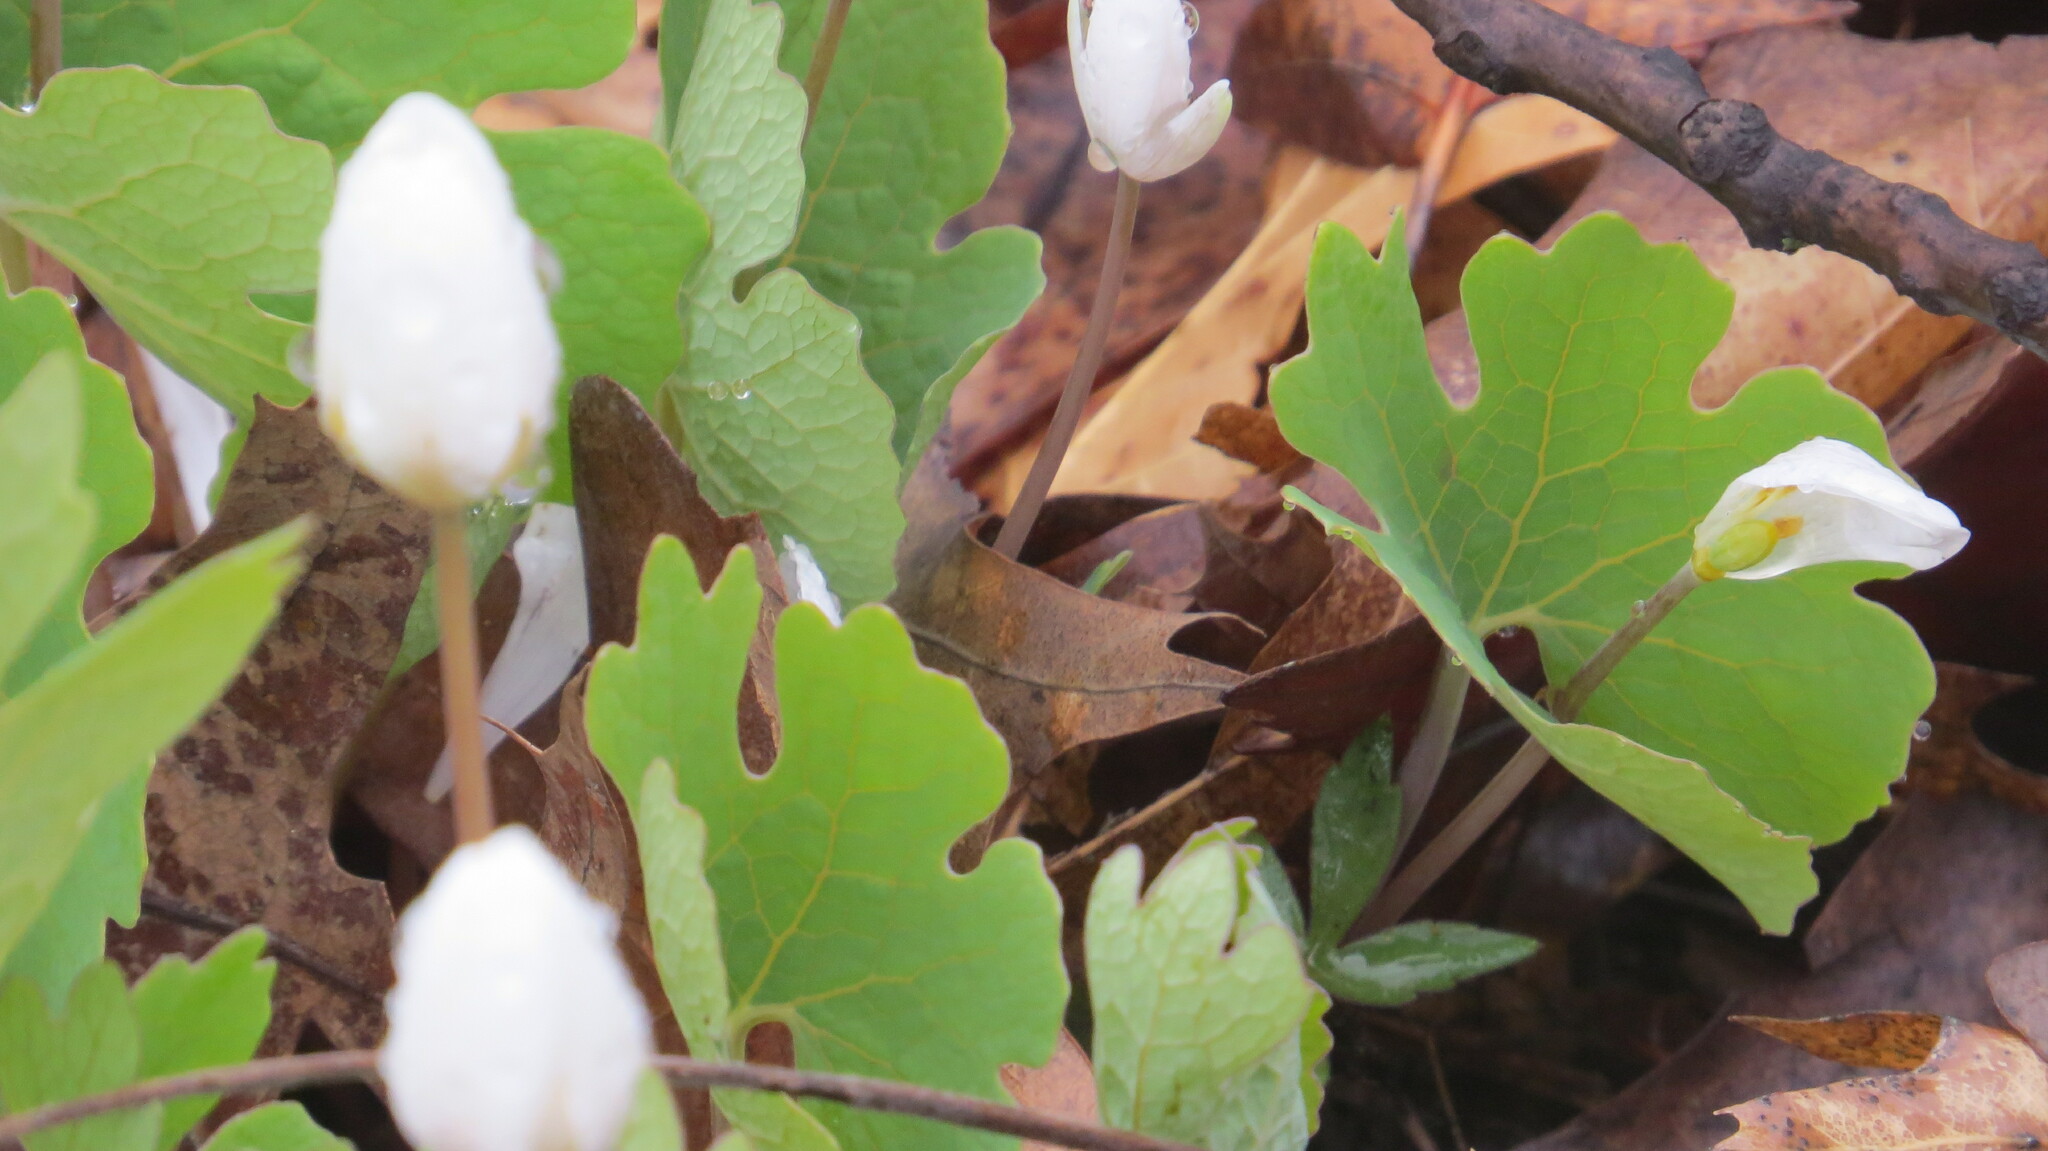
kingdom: Plantae
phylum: Tracheophyta
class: Magnoliopsida
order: Ranunculales
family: Papaveraceae
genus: Sanguinaria
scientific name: Sanguinaria canadensis
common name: Bloodroot
